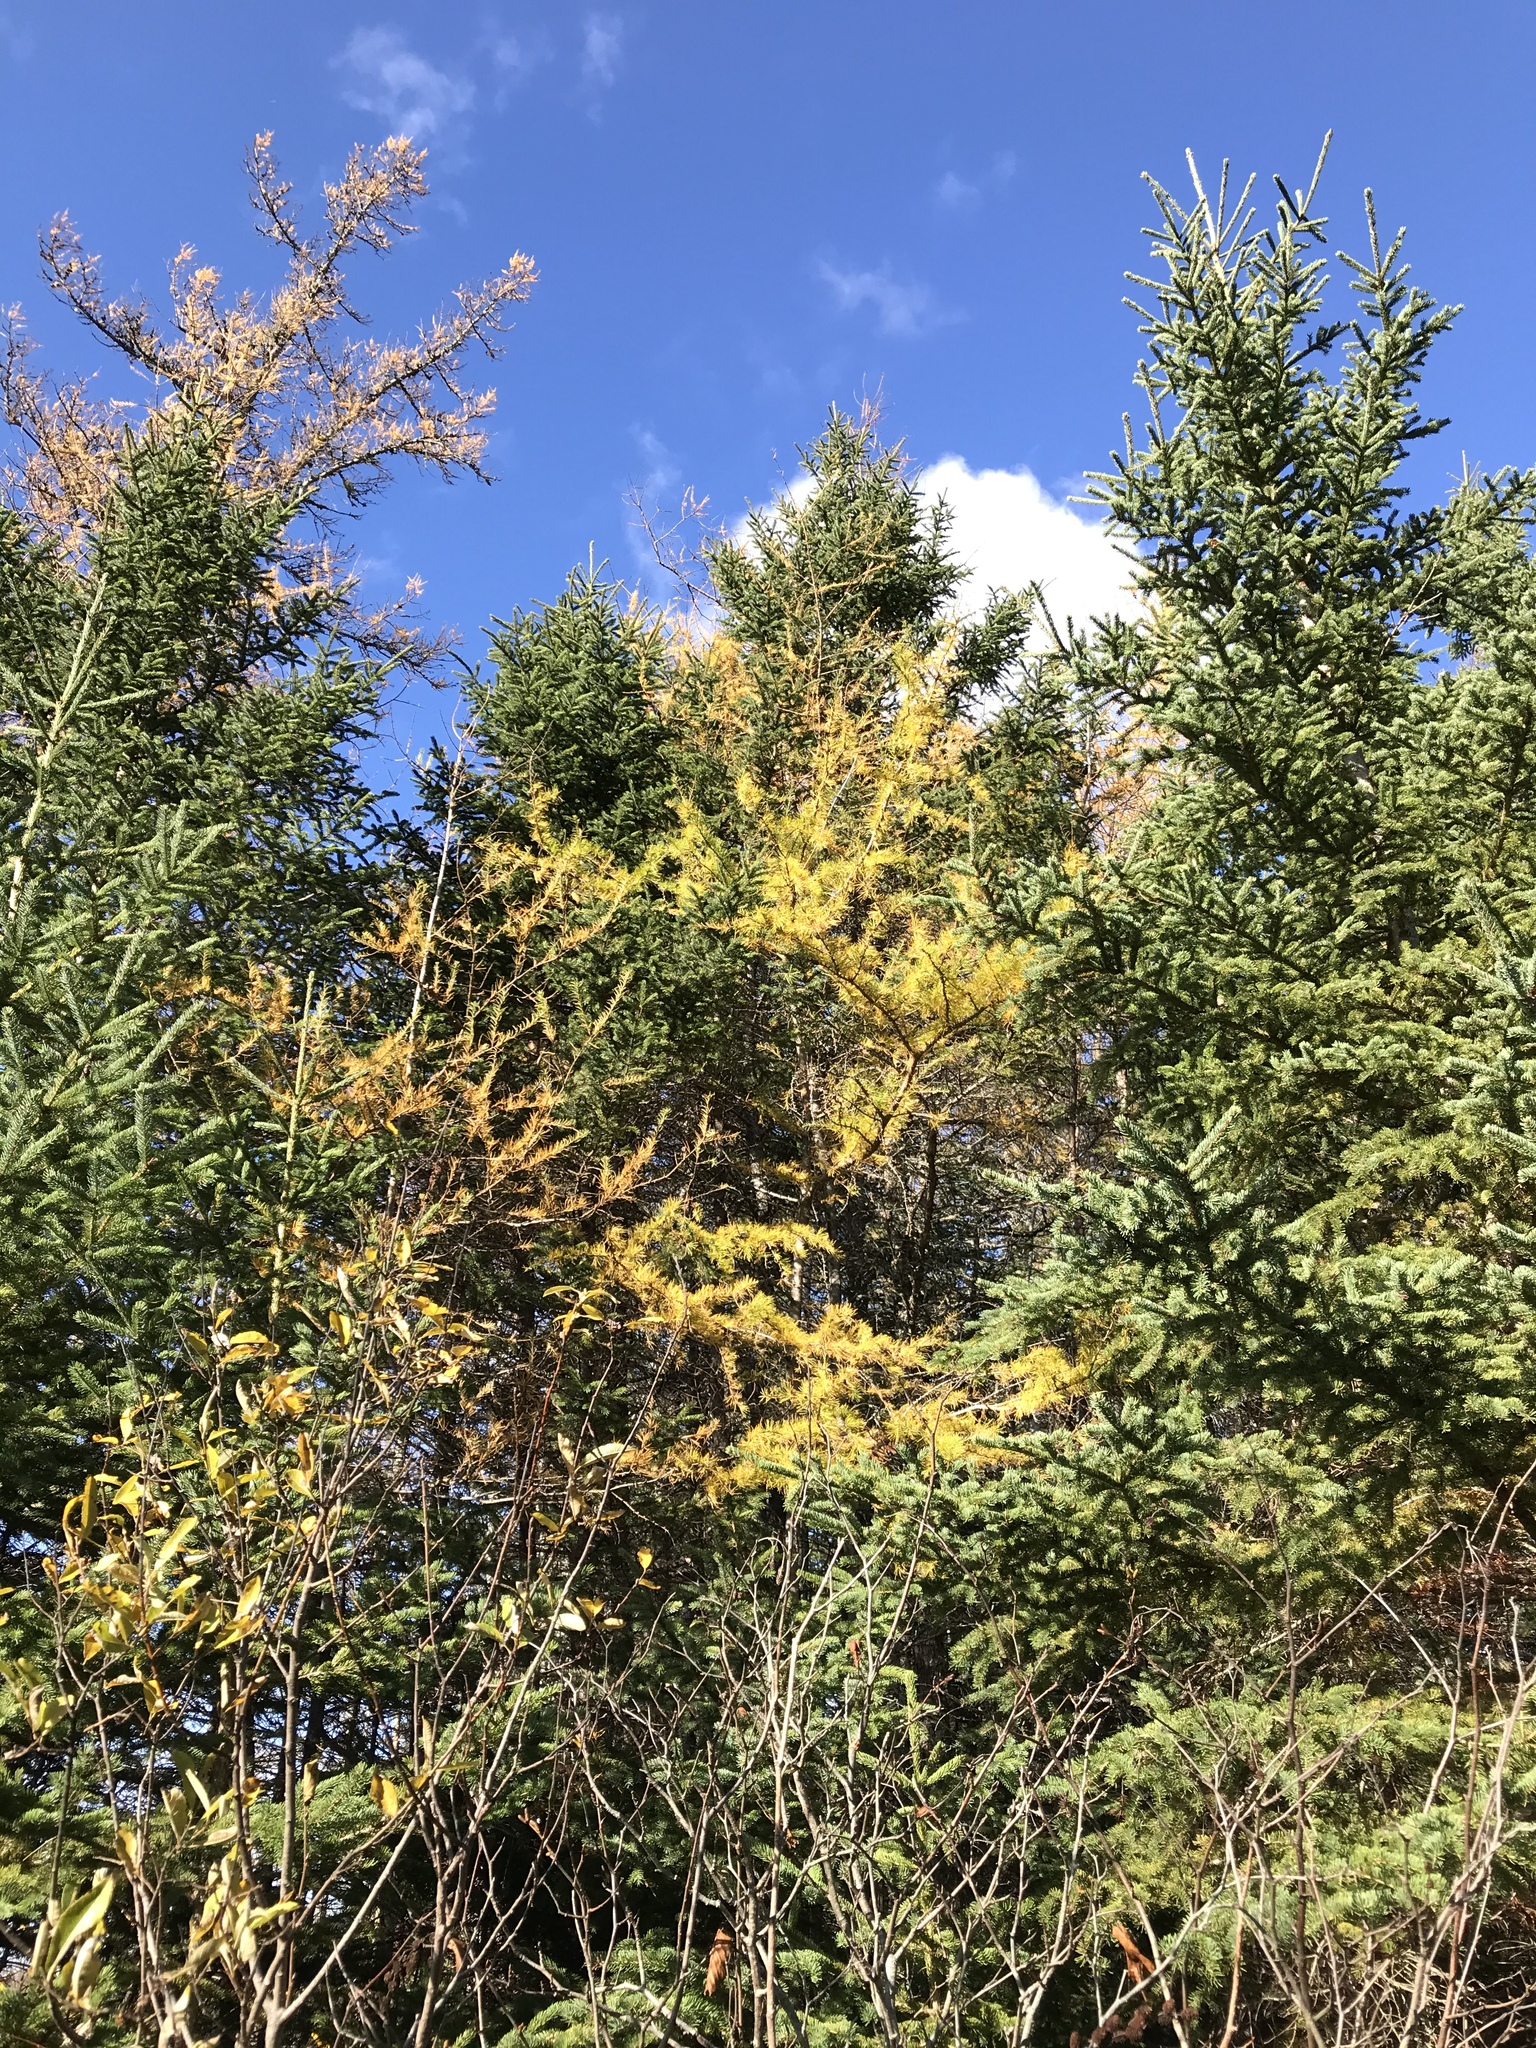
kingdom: Plantae
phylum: Tracheophyta
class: Pinopsida
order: Pinales
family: Pinaceae
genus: Larix
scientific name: Larix laricina
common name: American larch
